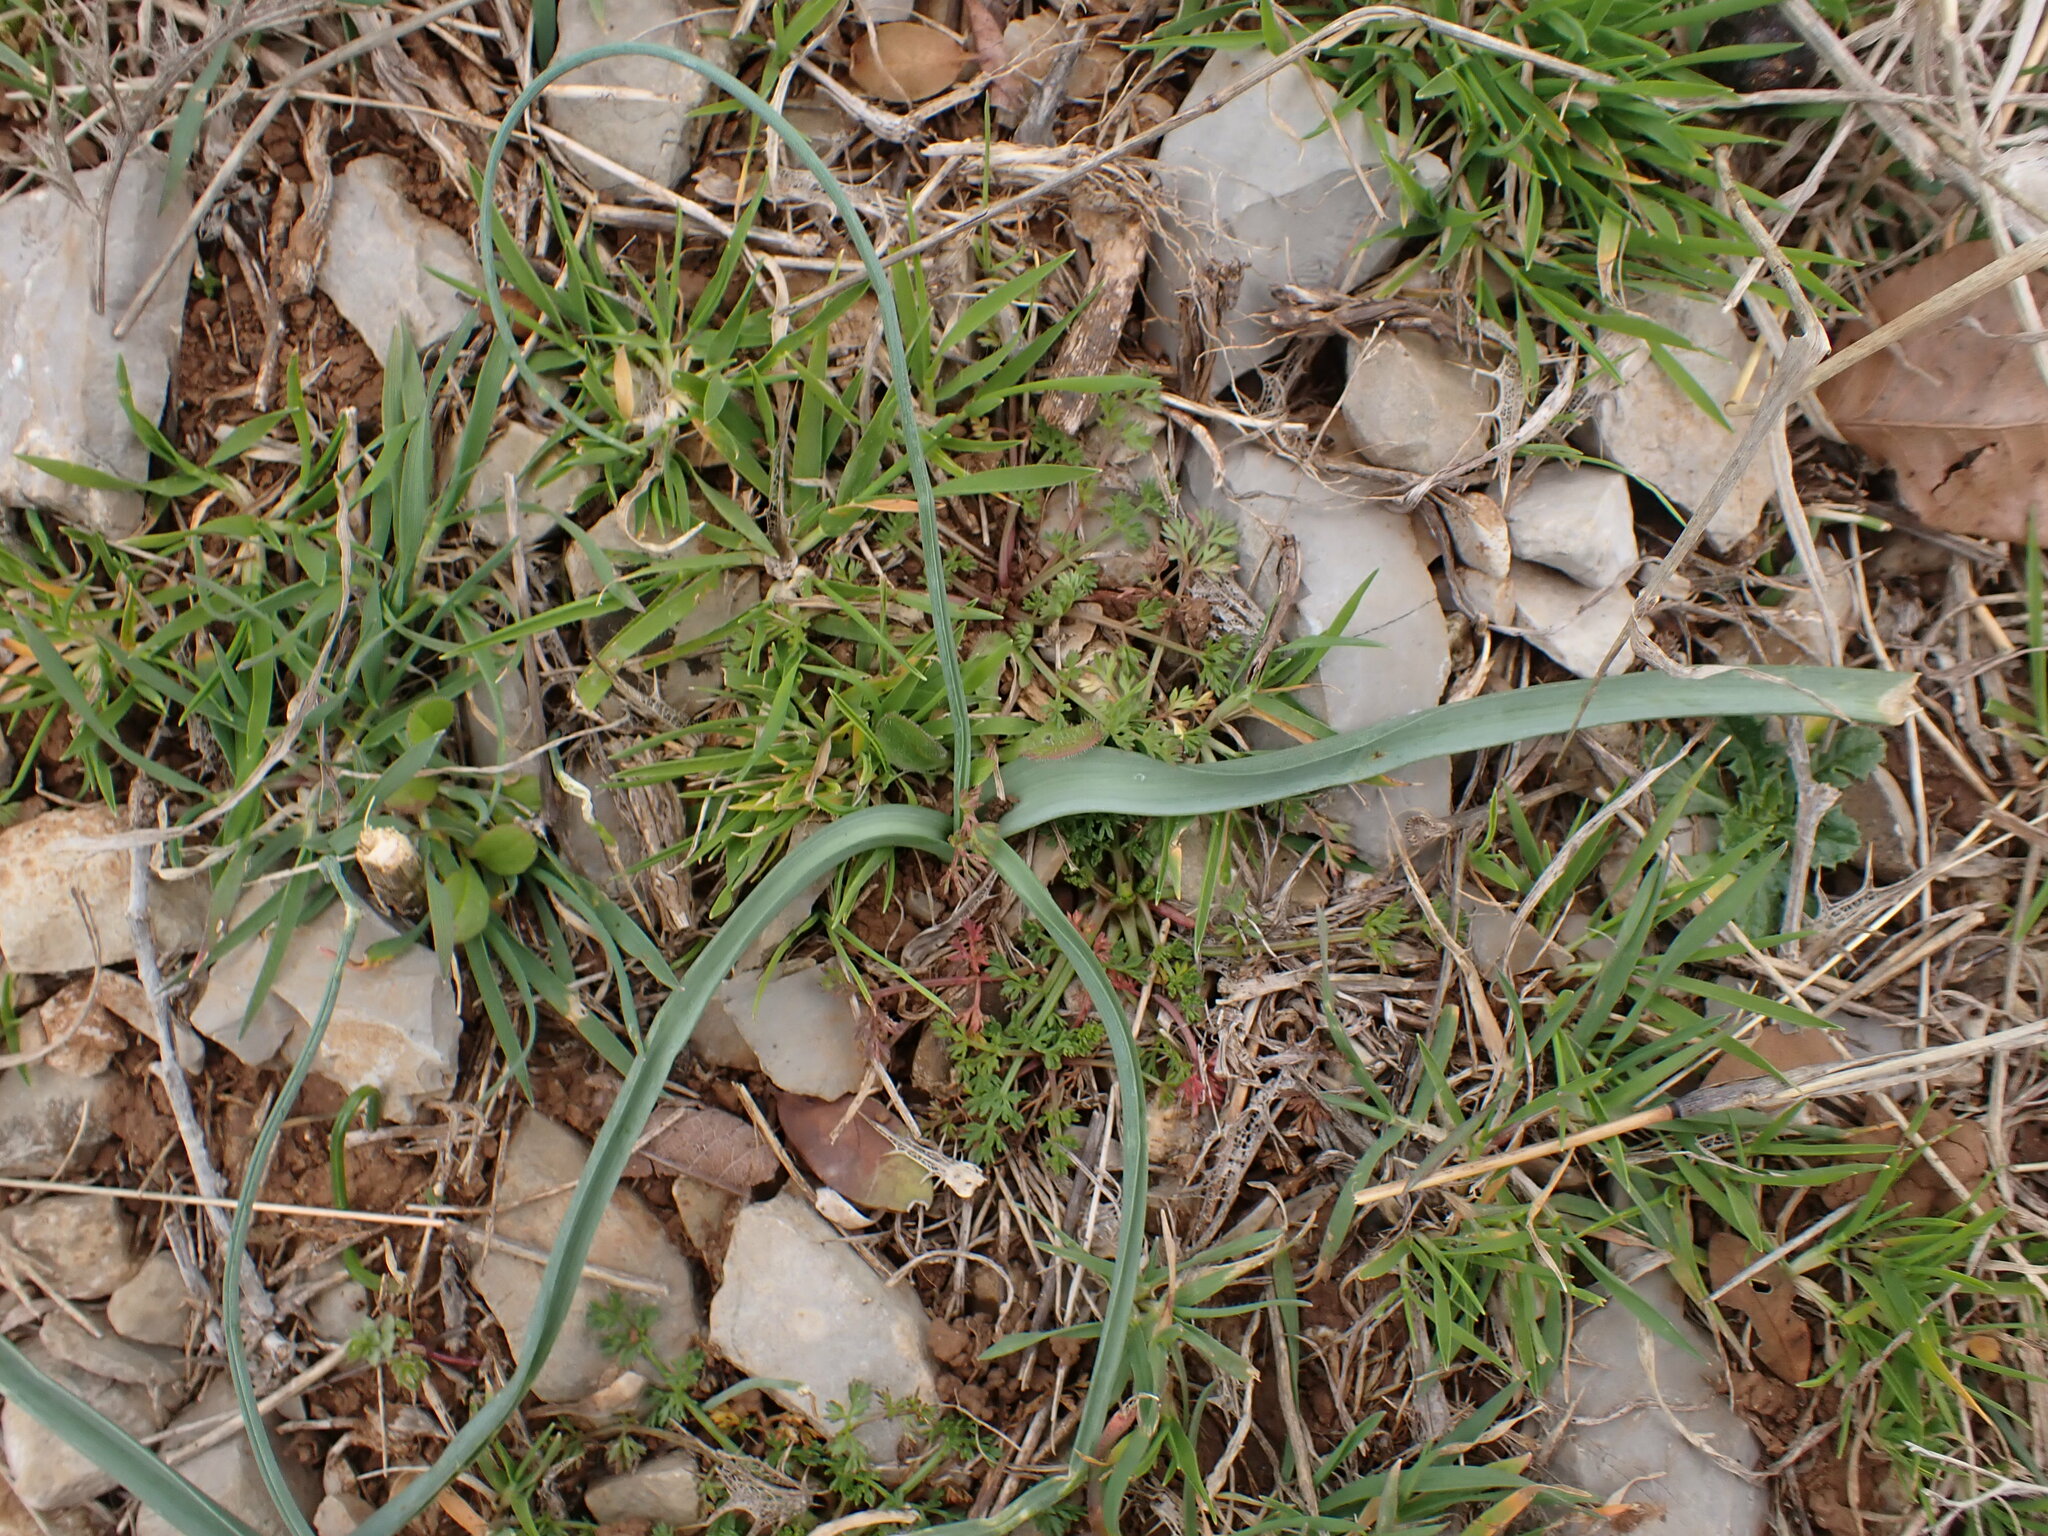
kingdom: Plantae
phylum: Tracheophyta
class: Liliopsida
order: Asparagales
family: Asparagaceae
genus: Muscari
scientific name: Muscari comosum
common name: Tassel hyacinth
